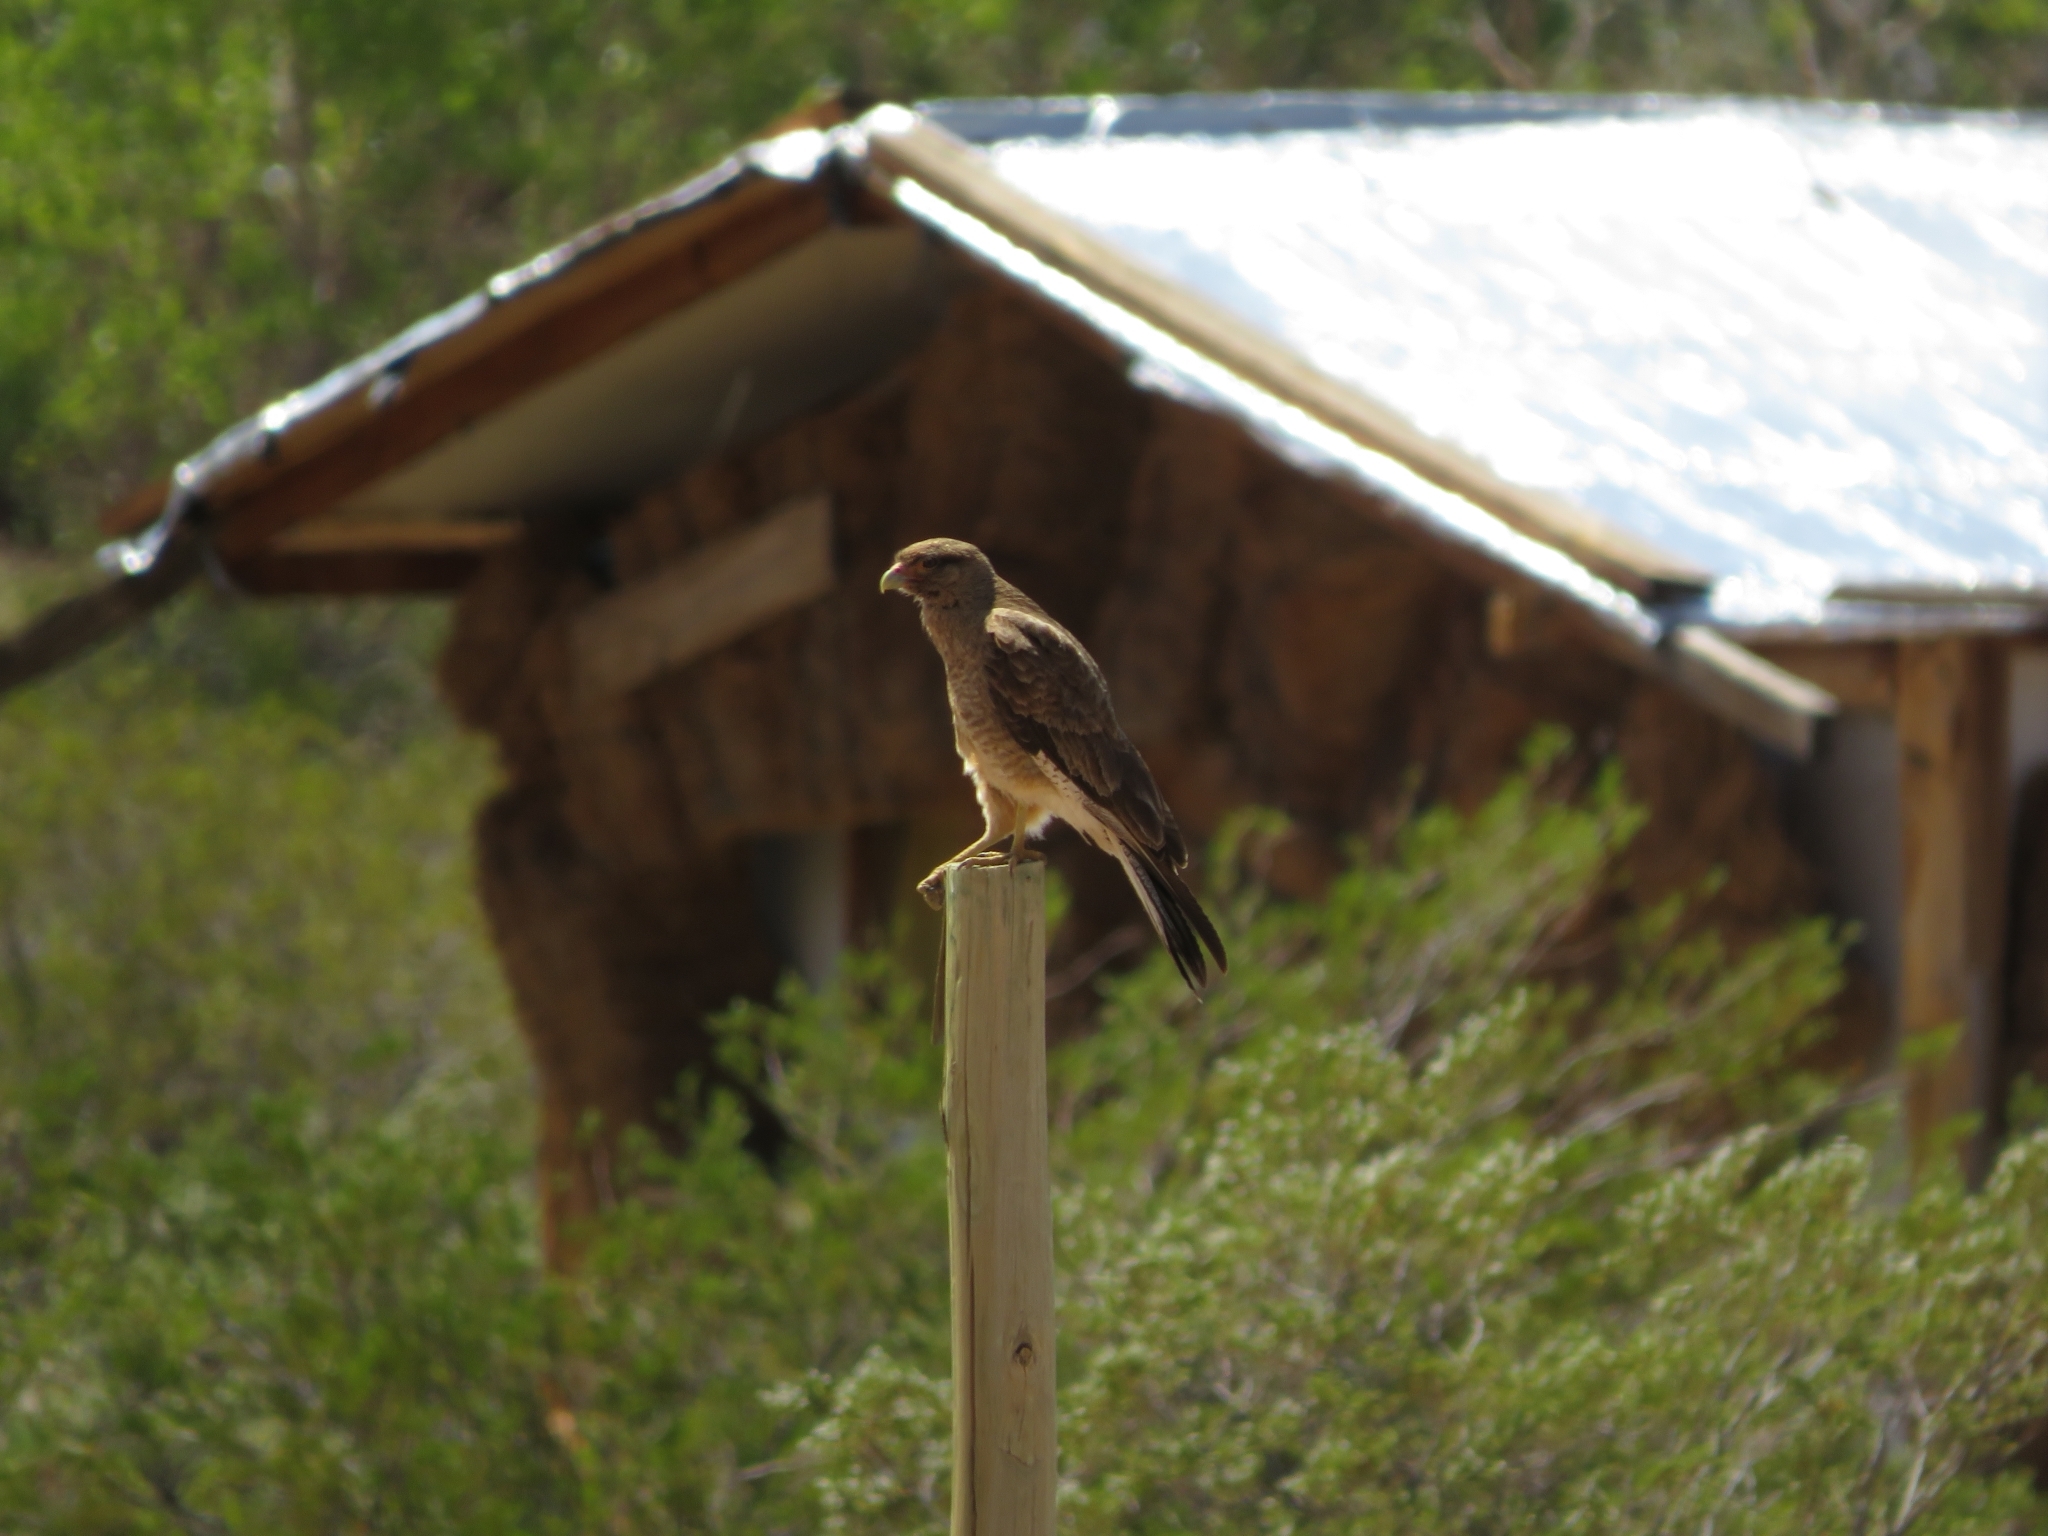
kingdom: Animalia
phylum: Chordata
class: Aves
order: Falconiformes
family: Falconidae
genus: Daptrius
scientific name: Daptrius
